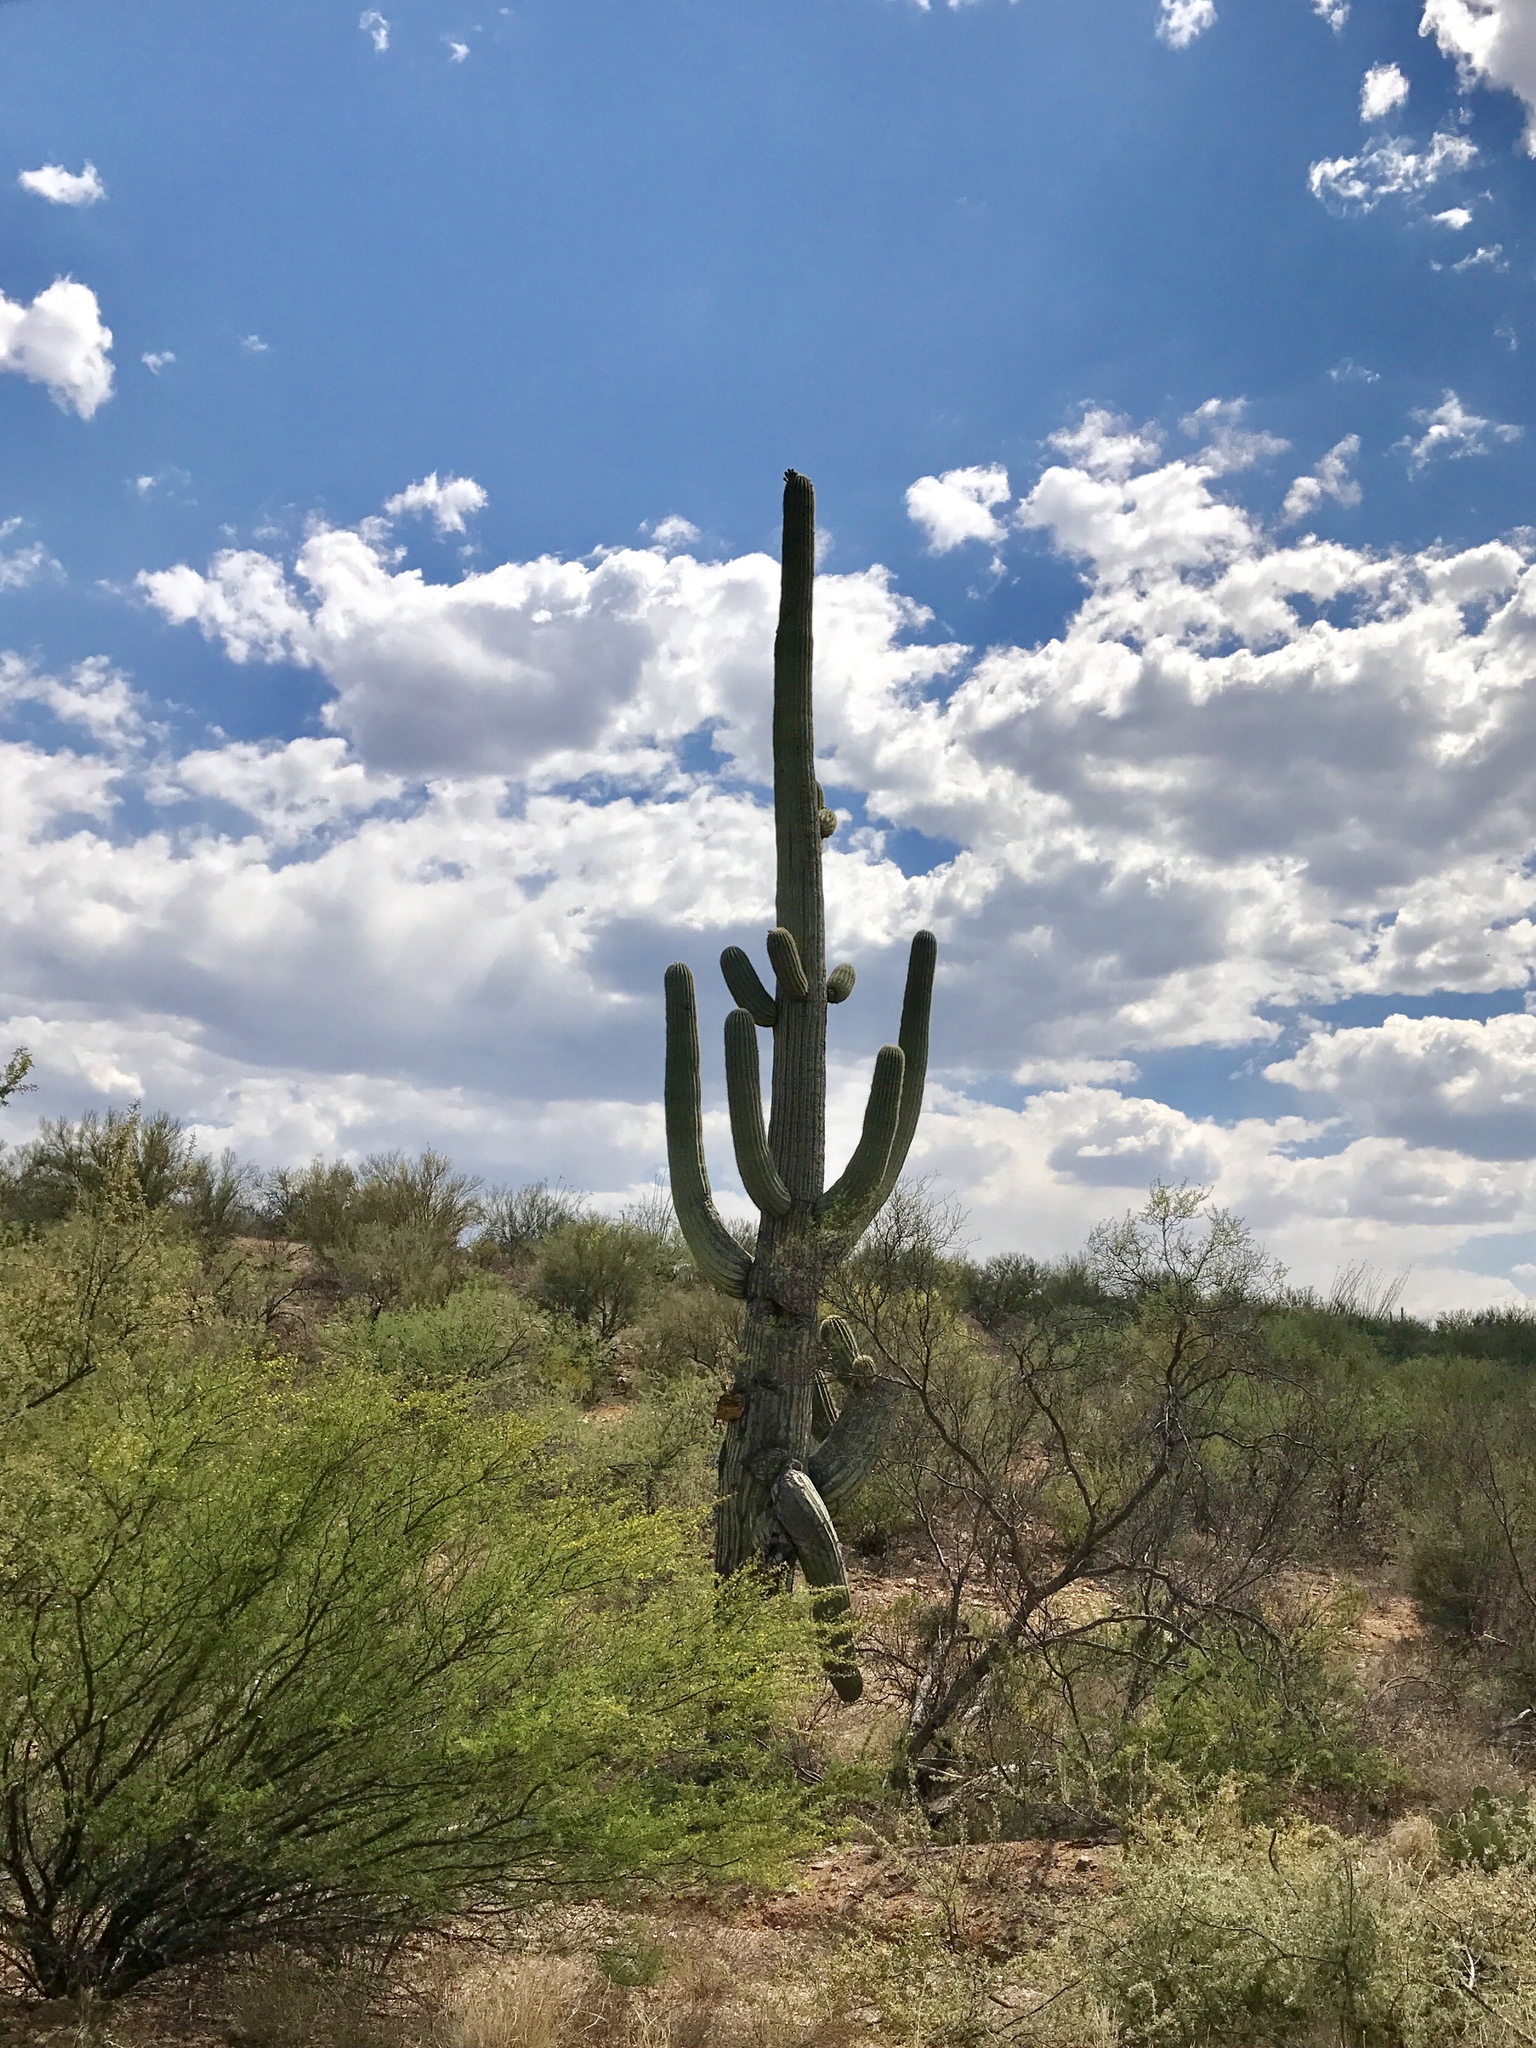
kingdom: Plantae
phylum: Tracheophyta
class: Magnoliopsida
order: Caryophyllales
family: Cactaceae
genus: Carnegiea
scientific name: Carnegiea gigantea
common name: Saguaro
